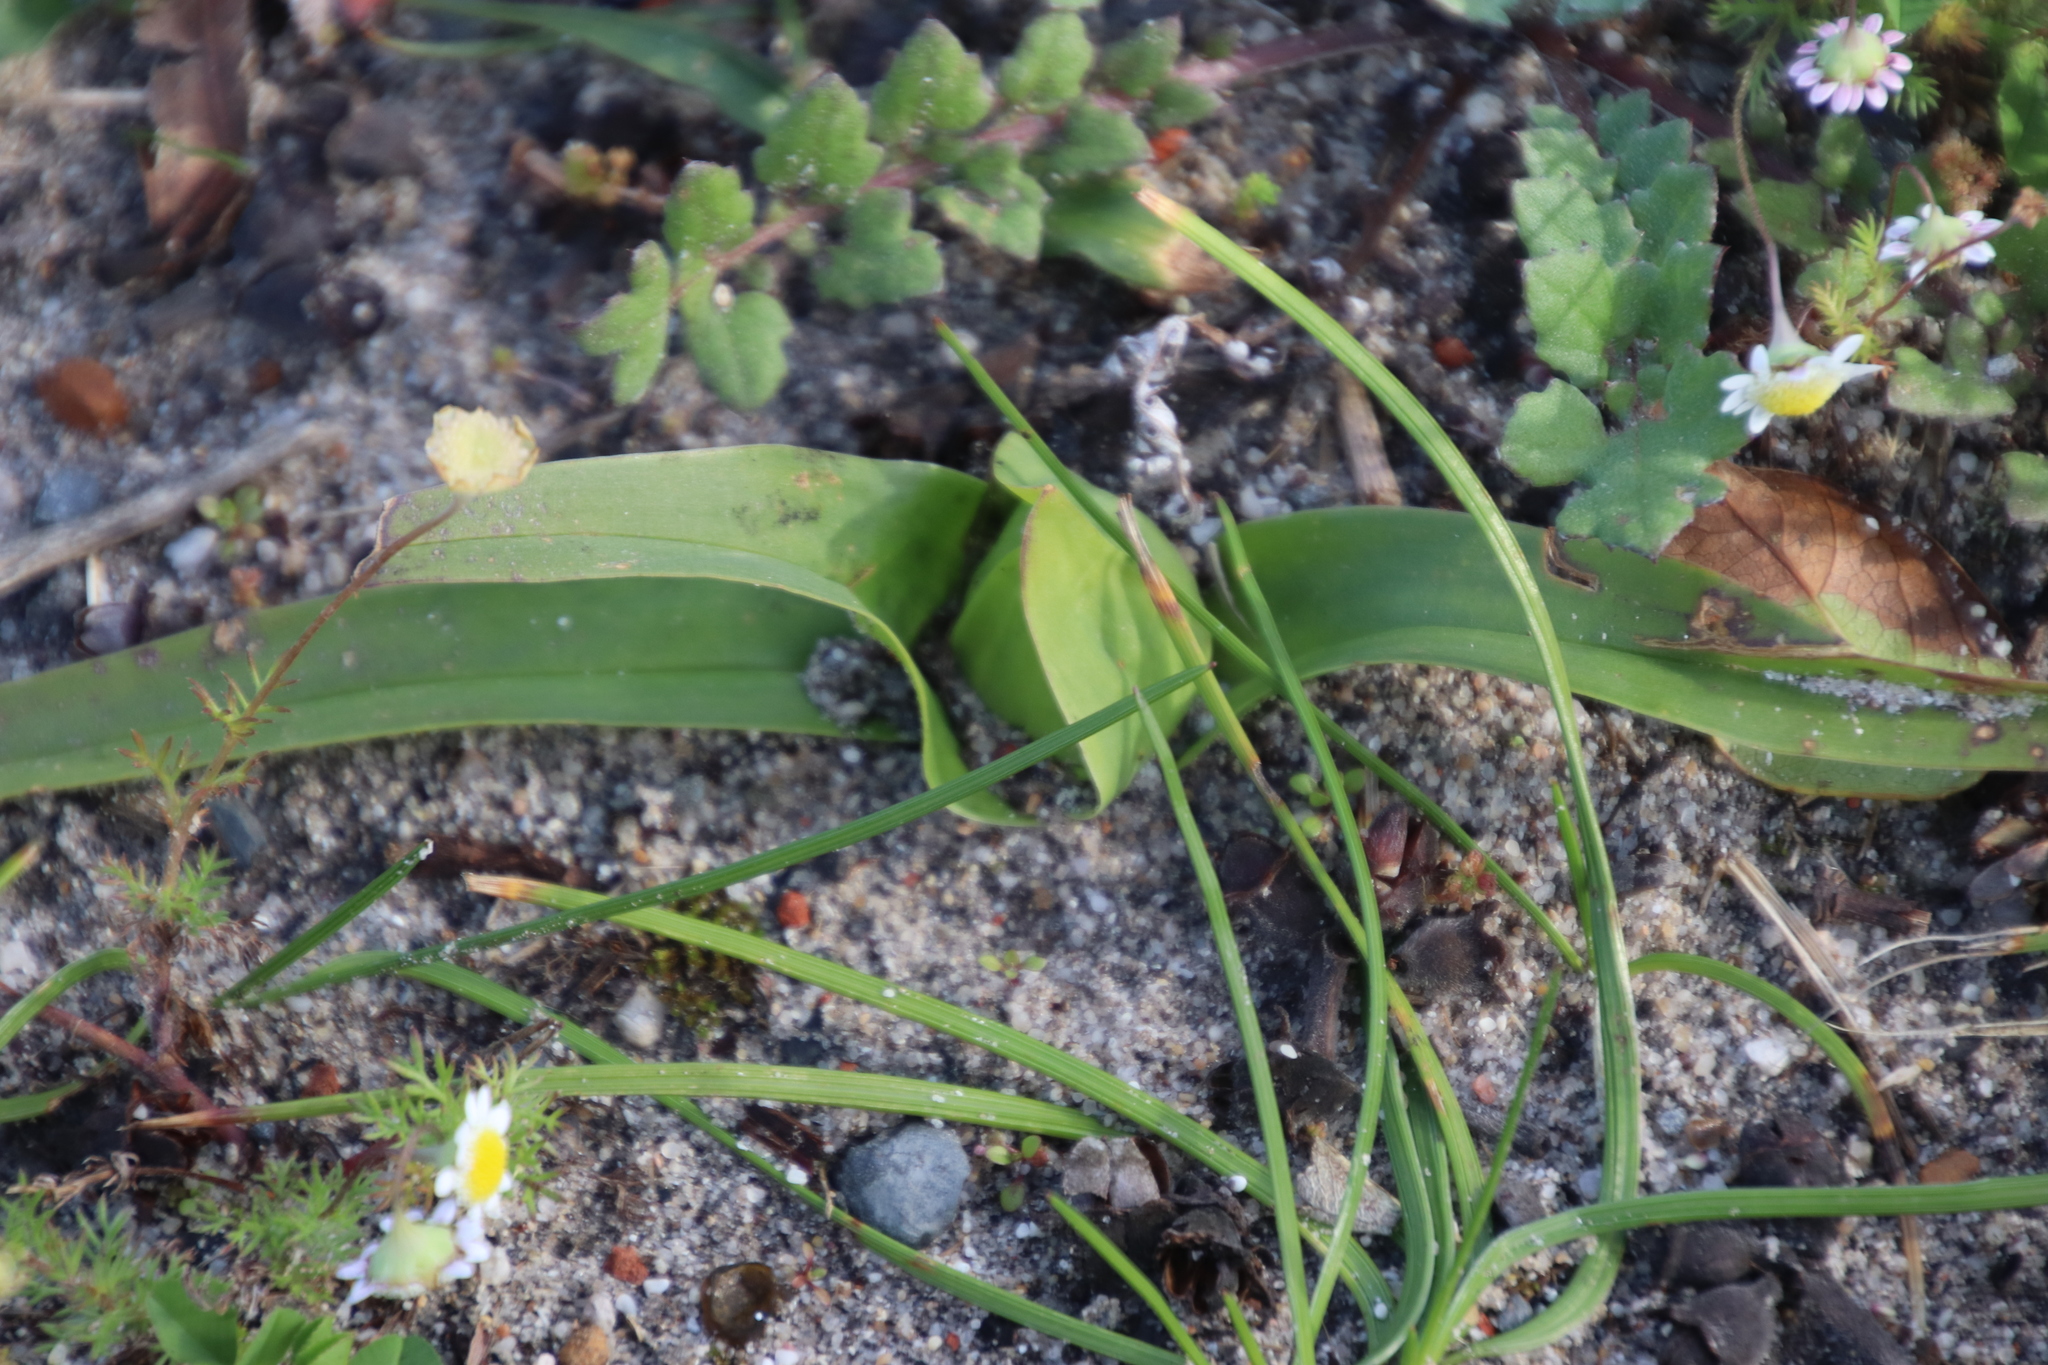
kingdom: Plantae
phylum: Tracheophyta
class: Liliopsida
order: Liliales
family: Colchicaceae
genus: Colchicum
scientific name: Colchicum eucomoides
